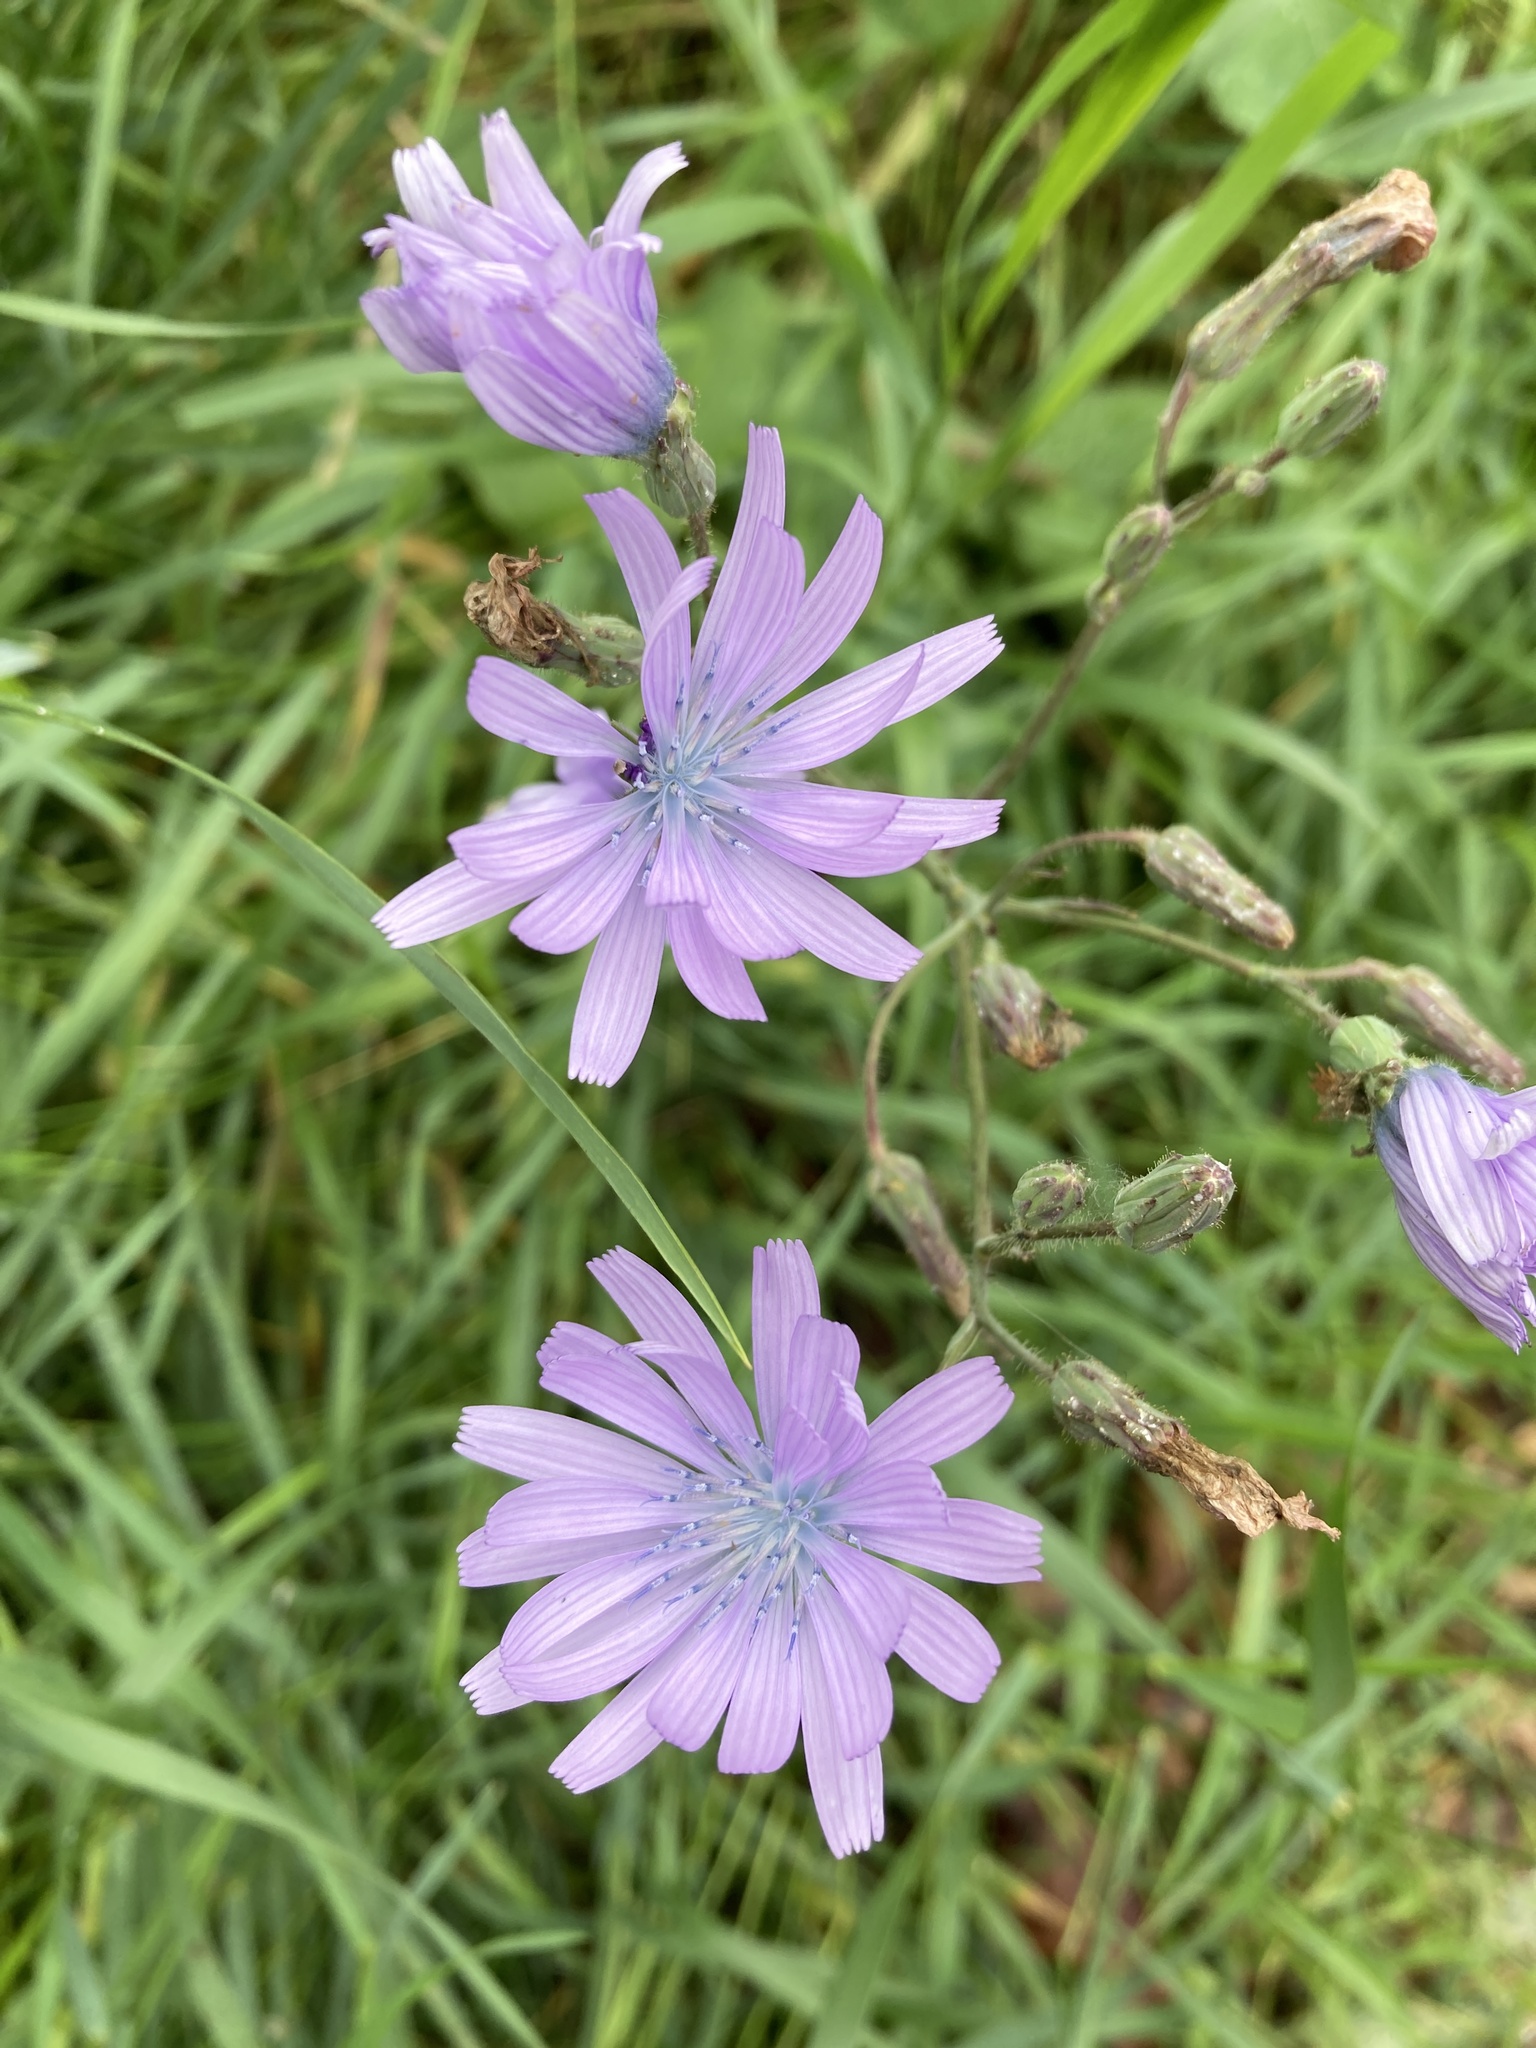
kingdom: Plantae
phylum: Tracheophyta
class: Magnoliopsida
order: Asterales
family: Asteraceae
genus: Lactuca
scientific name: Lactuca macrophylla
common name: Common blue-sow-thistle
